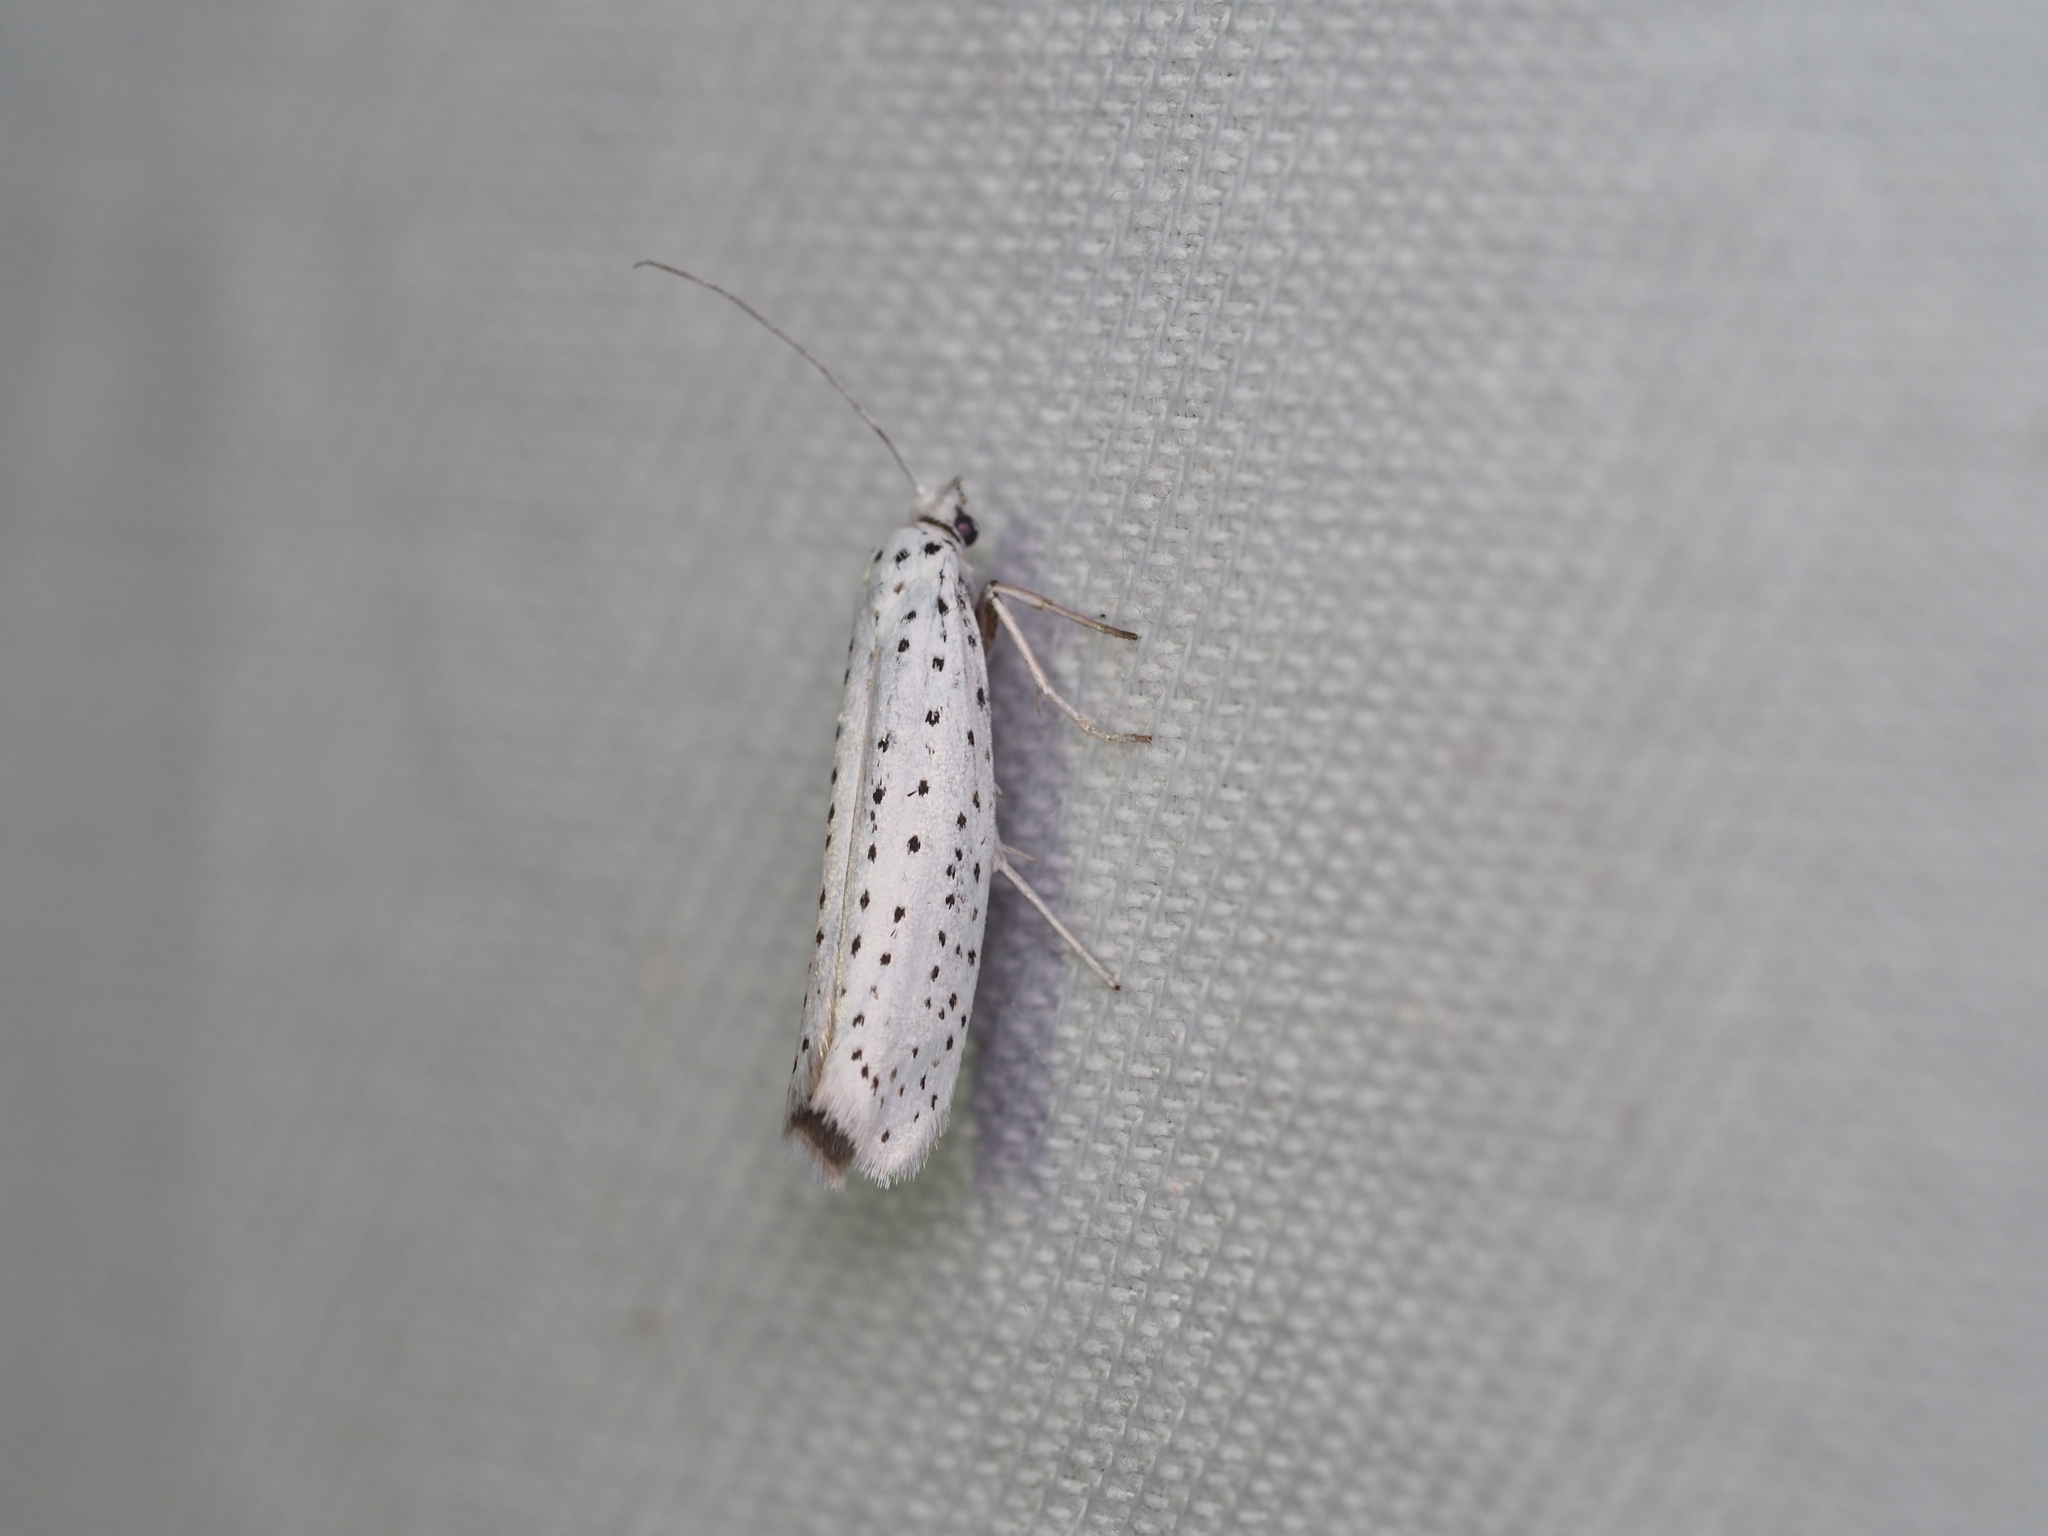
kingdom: Animalia
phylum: Arthropoda
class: Insecta
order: Lepidoptera
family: Yponomeutidae
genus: Yponomeuta
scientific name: Yponomeuta evonymella
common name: Bird-cherry ermine
